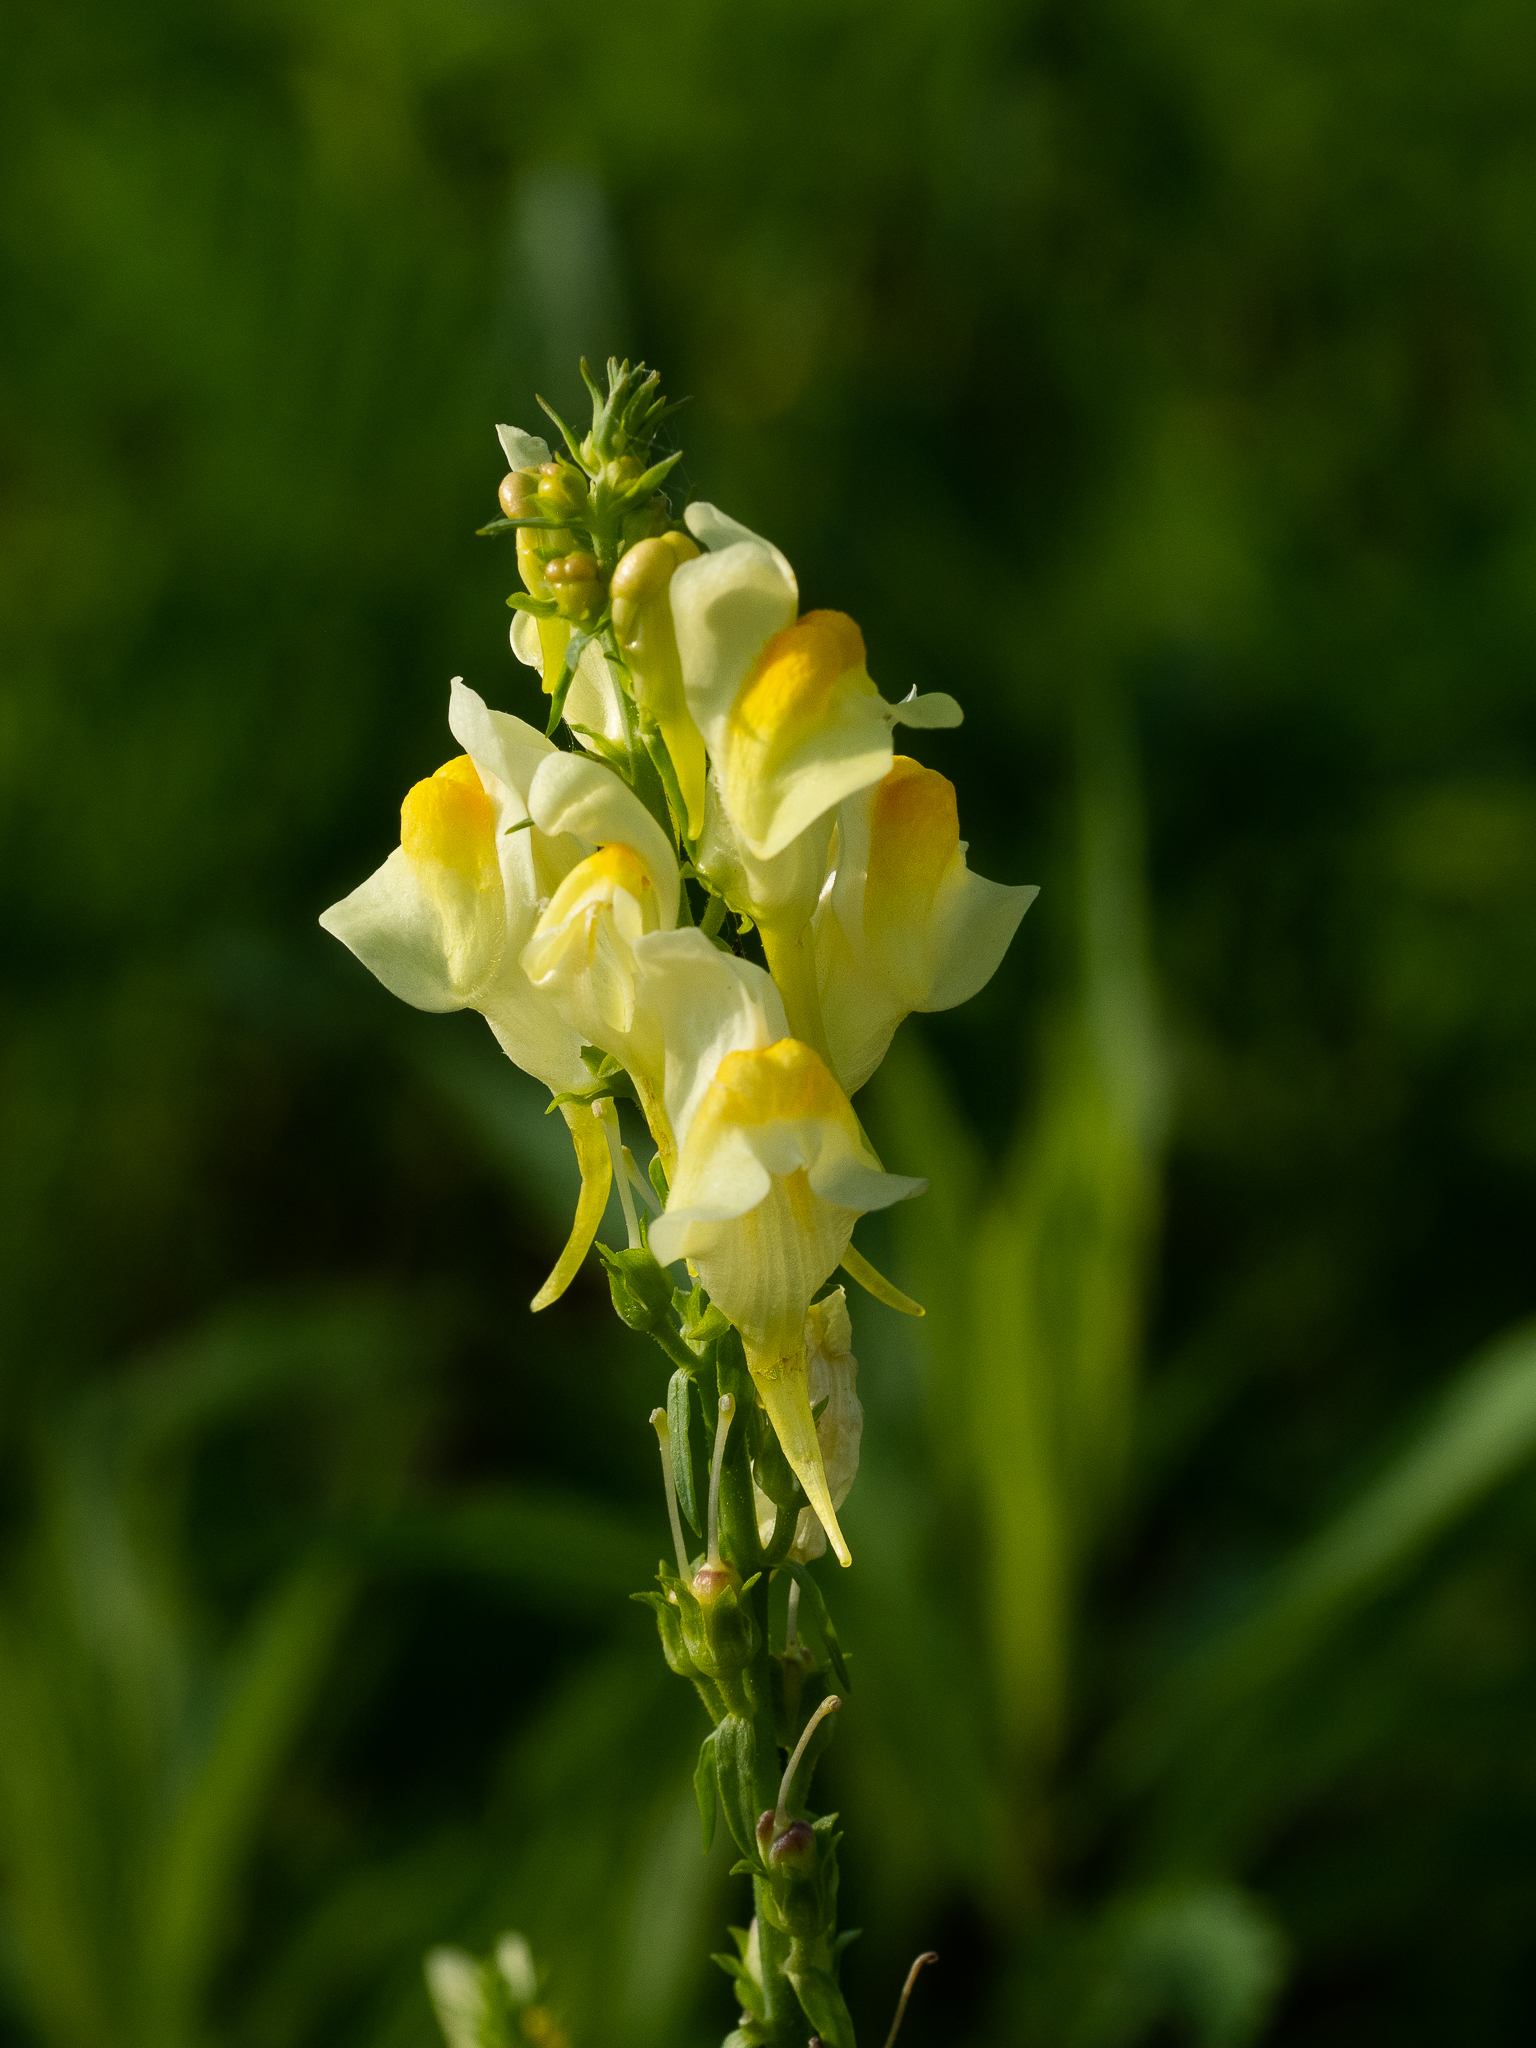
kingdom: Plantae
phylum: Tracheophyta
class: Magnoliopsida
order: Lamiales
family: Plantaginaceae
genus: Linaria
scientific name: Linaria vulgaris
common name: Butter and eggs
